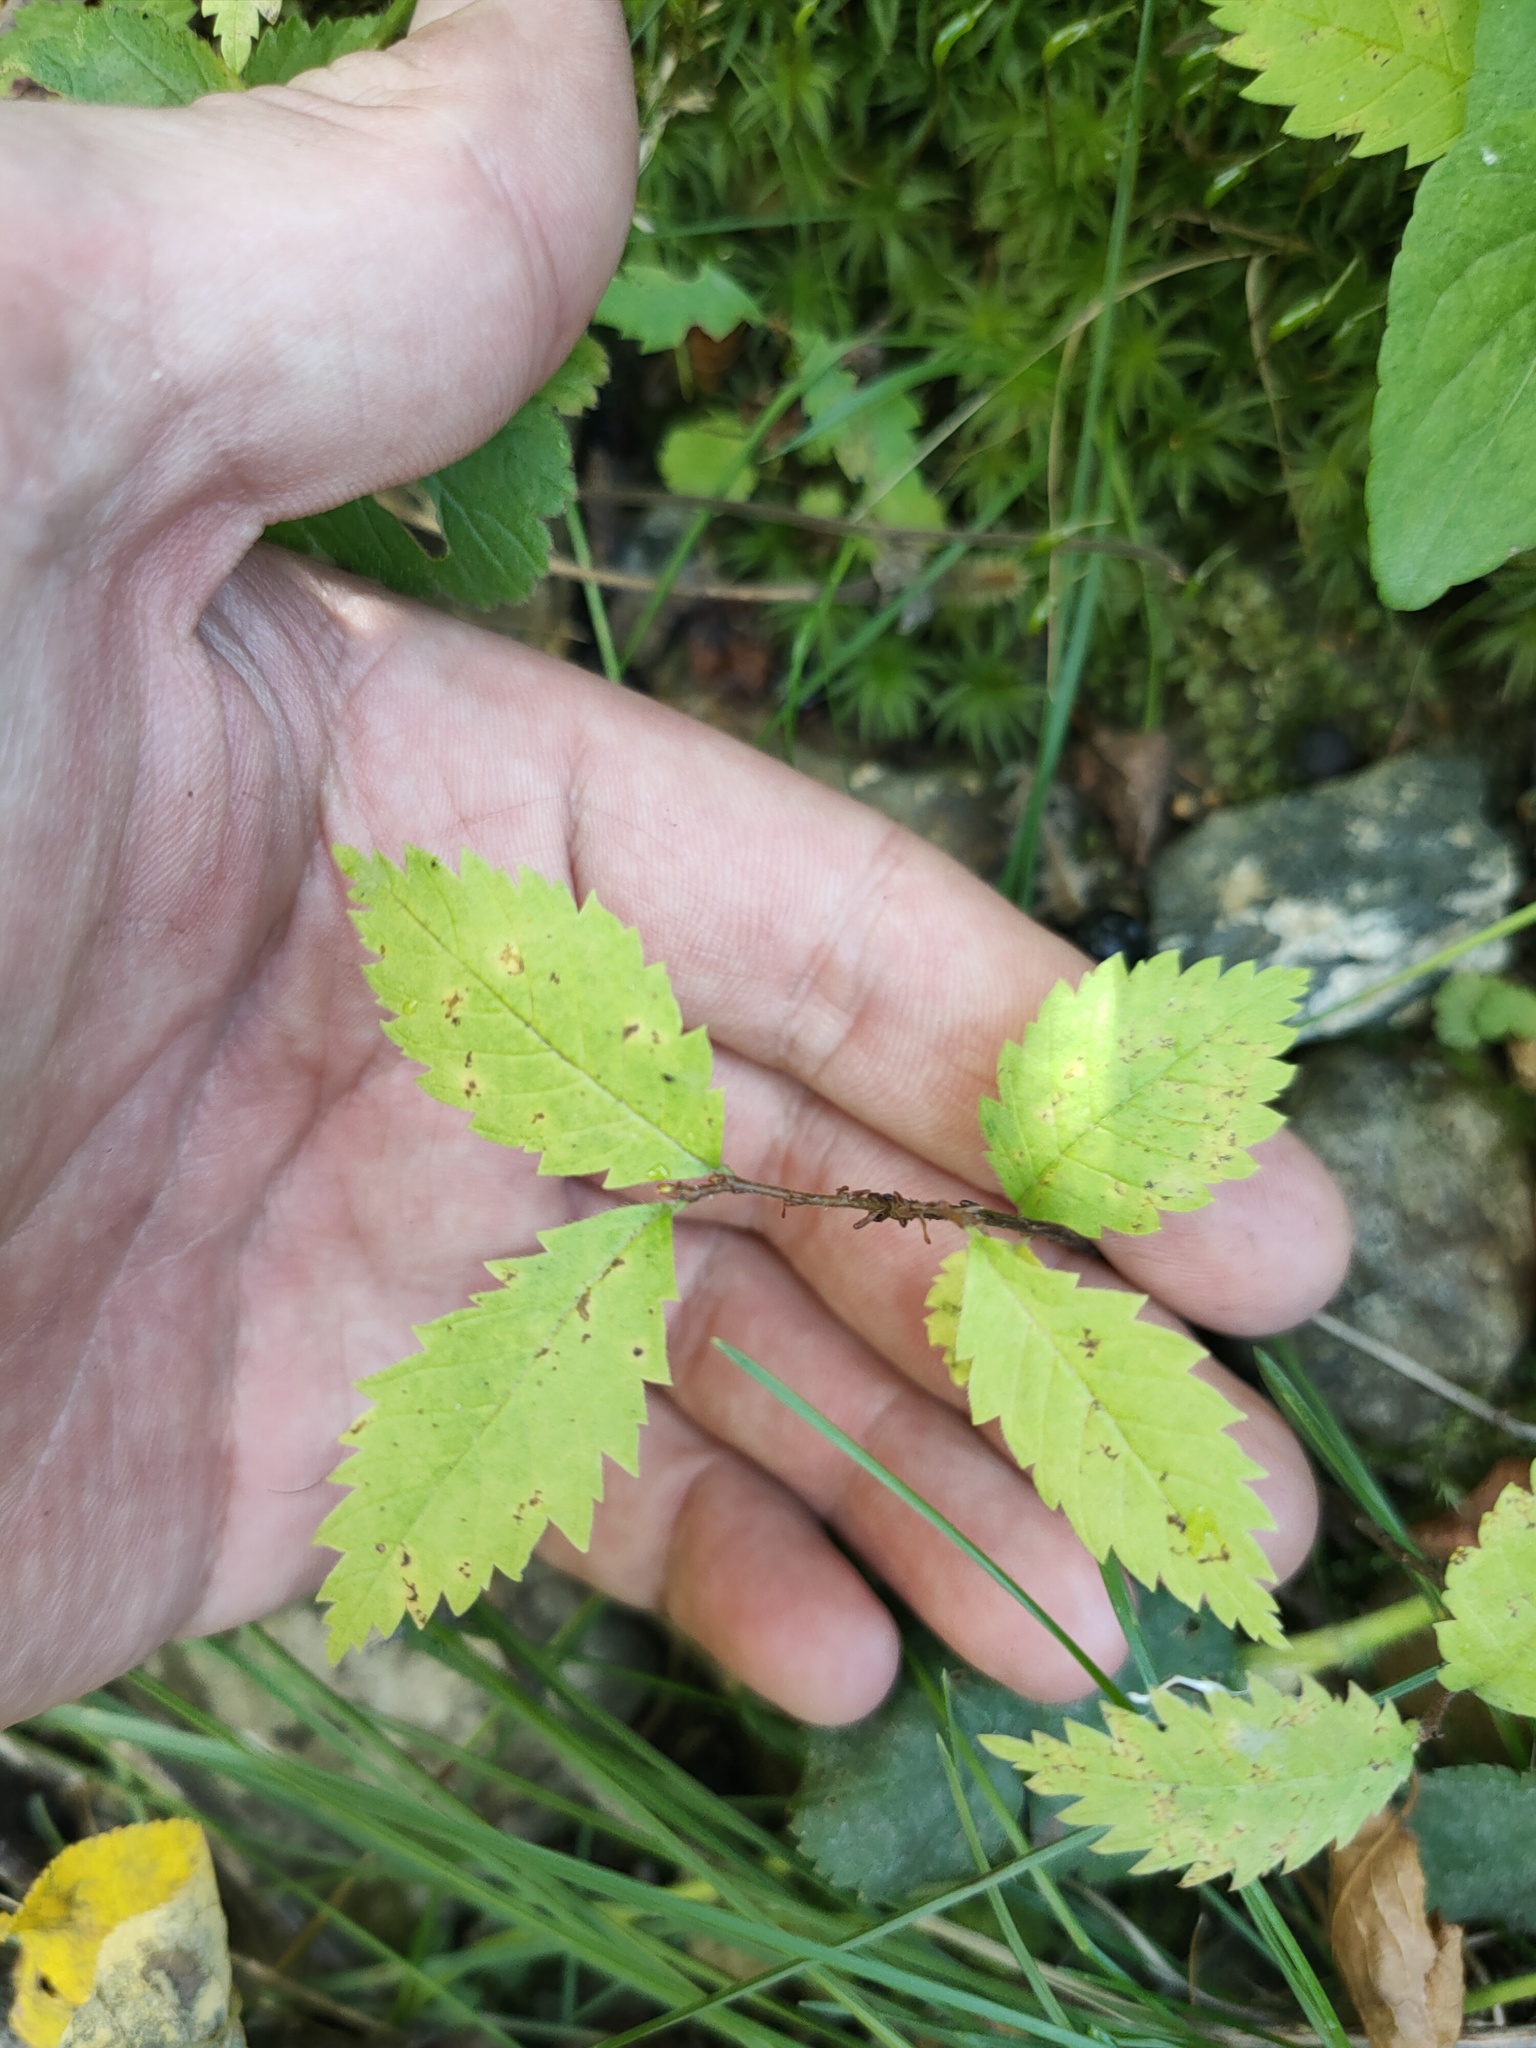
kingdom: Plantae
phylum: Tracheophyta
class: Magnoliopsida
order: Rosales
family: Ulmaceae
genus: Ulmus
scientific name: Ulmus pumila
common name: Siberian elm
